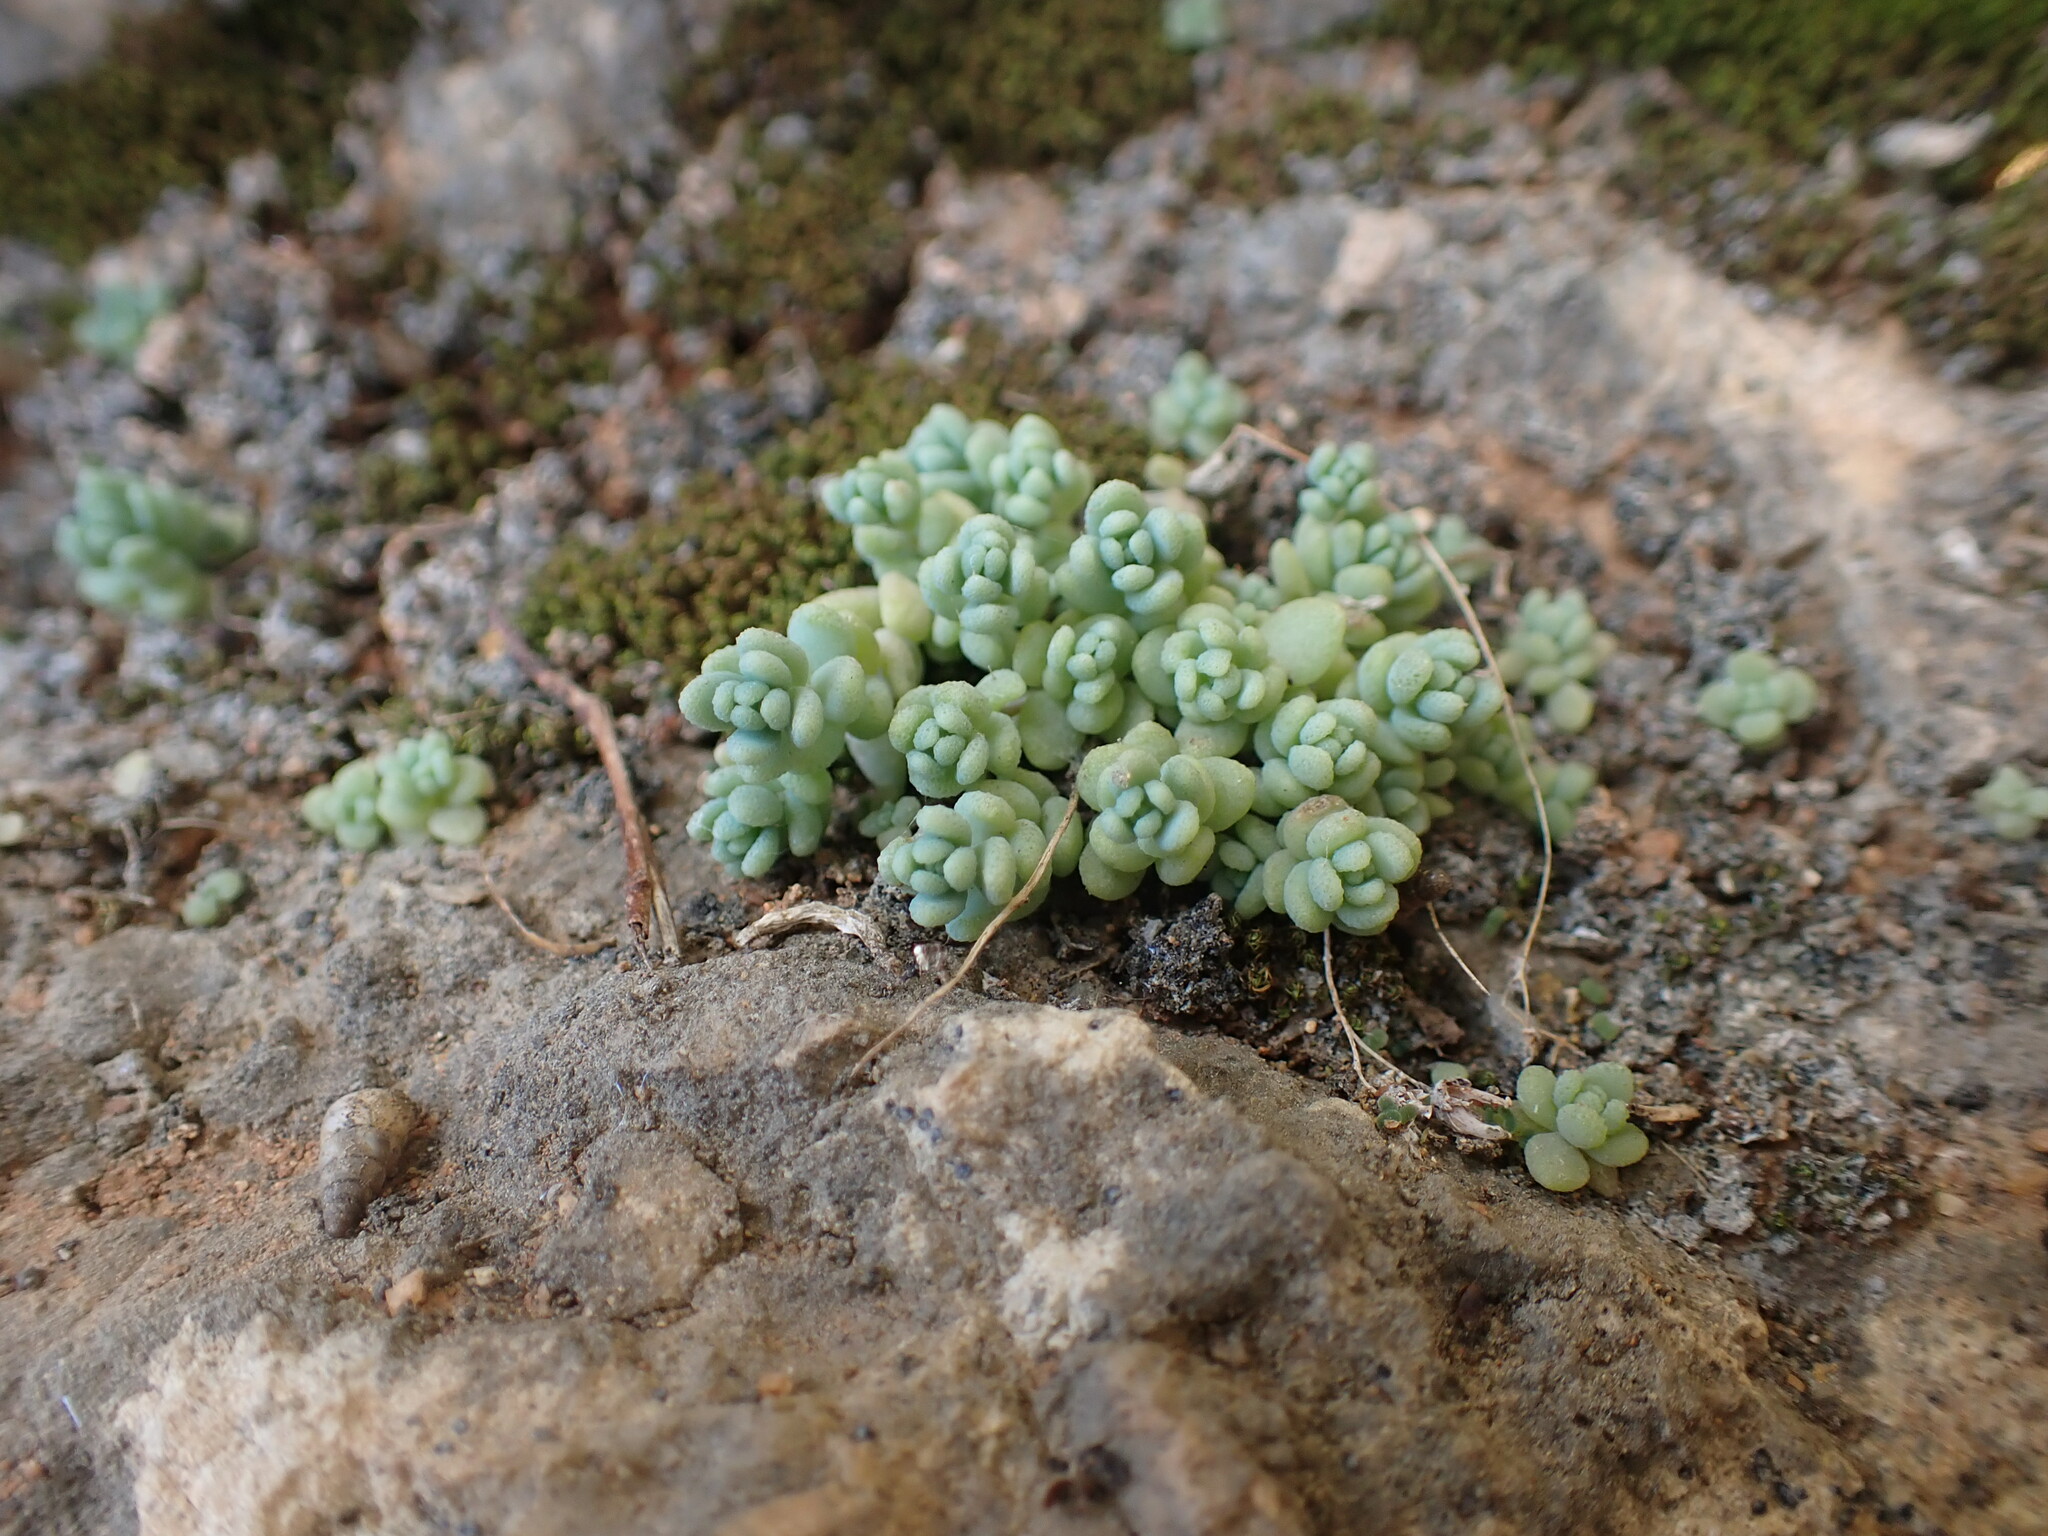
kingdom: Plantae
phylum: Tracheophyta
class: Magnoliopsida
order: Saxifragales
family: Crassulaceae
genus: Sedum
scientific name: Sedum dasyphyllum
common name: Thick-leaf stonecrop
